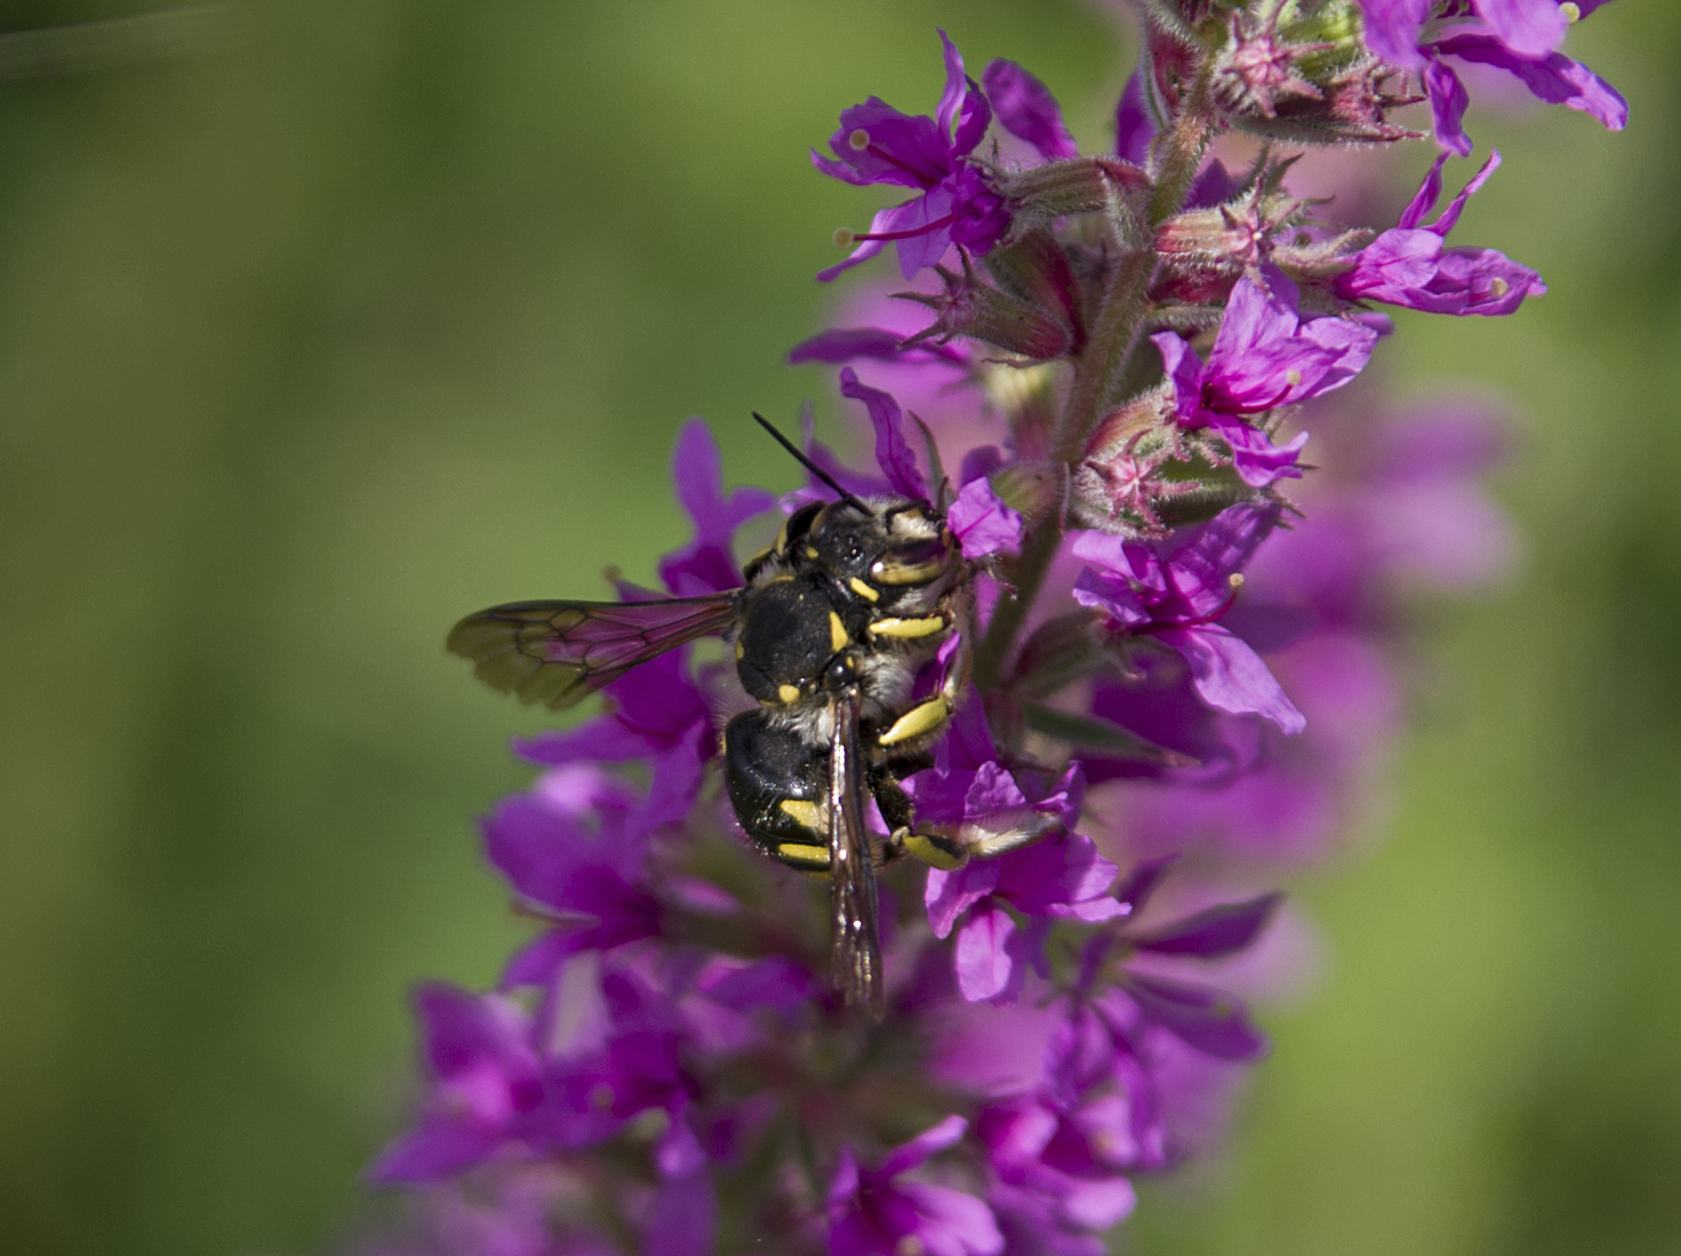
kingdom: Animalia
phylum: Arthropoda
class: Insecta
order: Hymenoptera
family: Megachilidae
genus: Anthidium
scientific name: Anthidium florentinum
